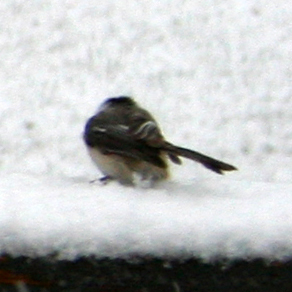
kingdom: Animalia
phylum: Chordata
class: Aves
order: Passeriformes
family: Paridae
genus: Poecile
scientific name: Poecile atricapillus
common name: Black-capped chickadee
